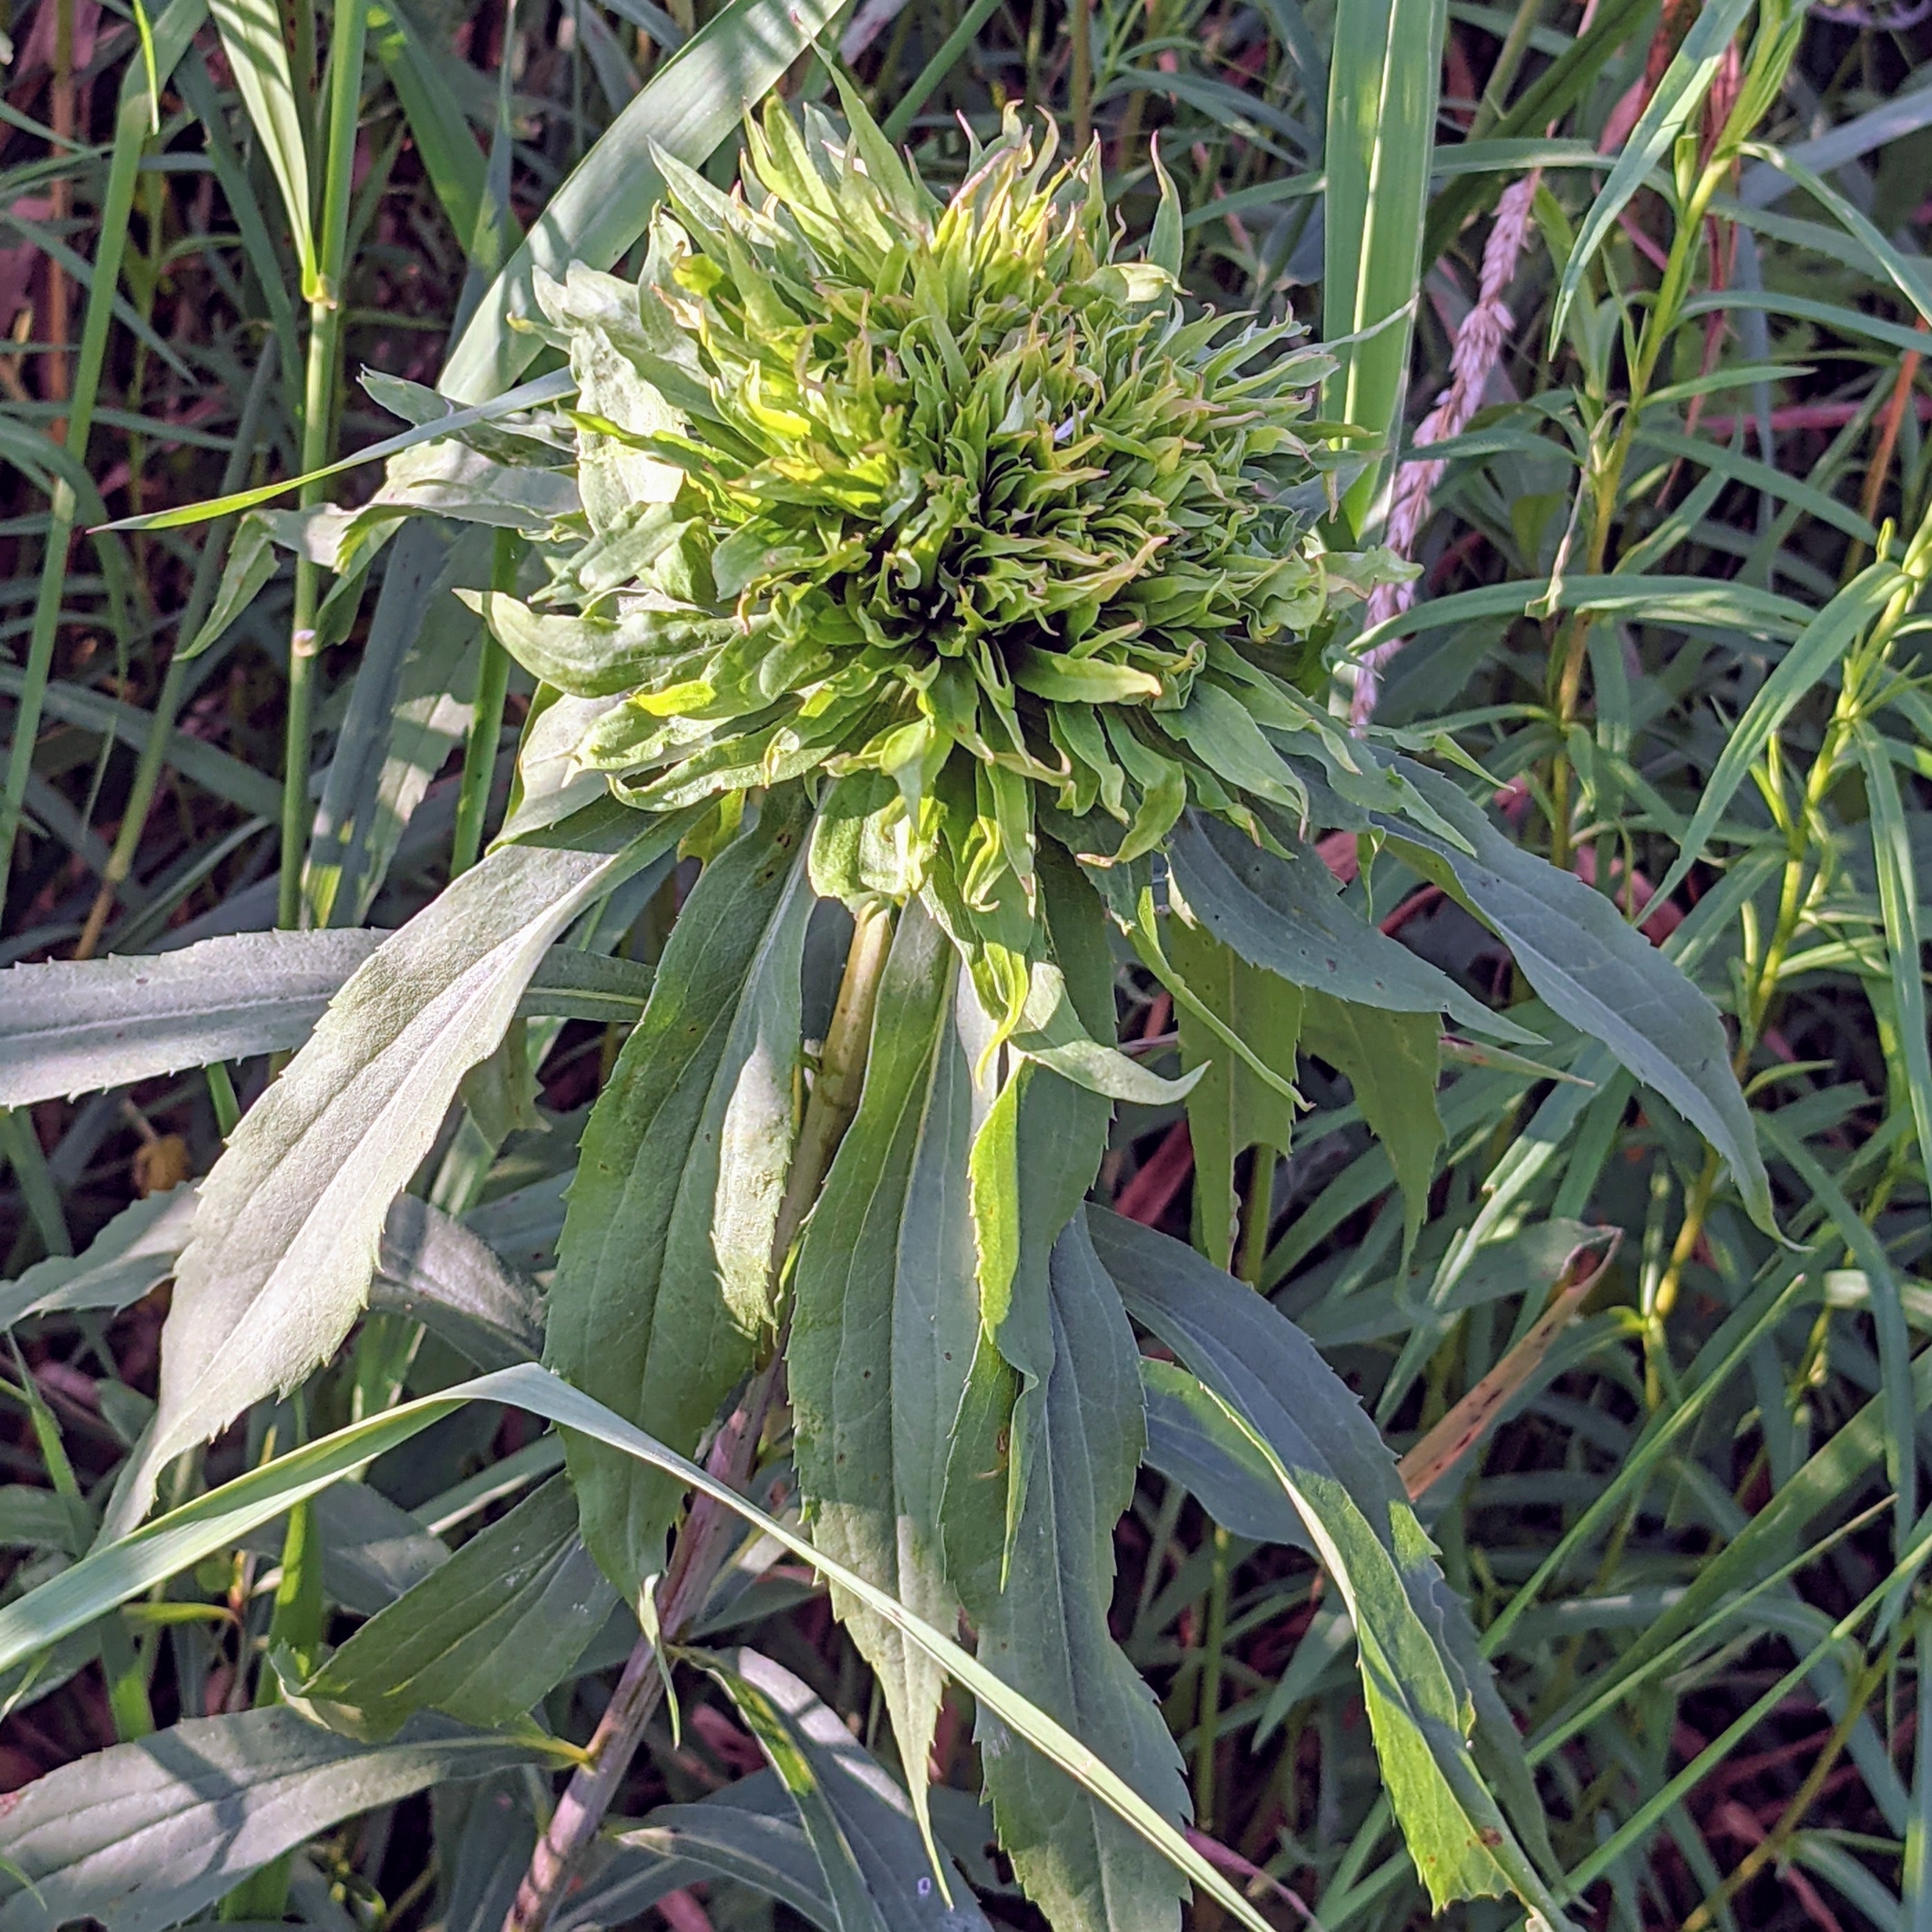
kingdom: Animalia
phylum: Arthropoda
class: Insecta
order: Diptera
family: Cecidomyiidae
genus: Rhopalomyia
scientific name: Rhopalomyia solidaginis
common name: Goldenrod bunch gall midge
